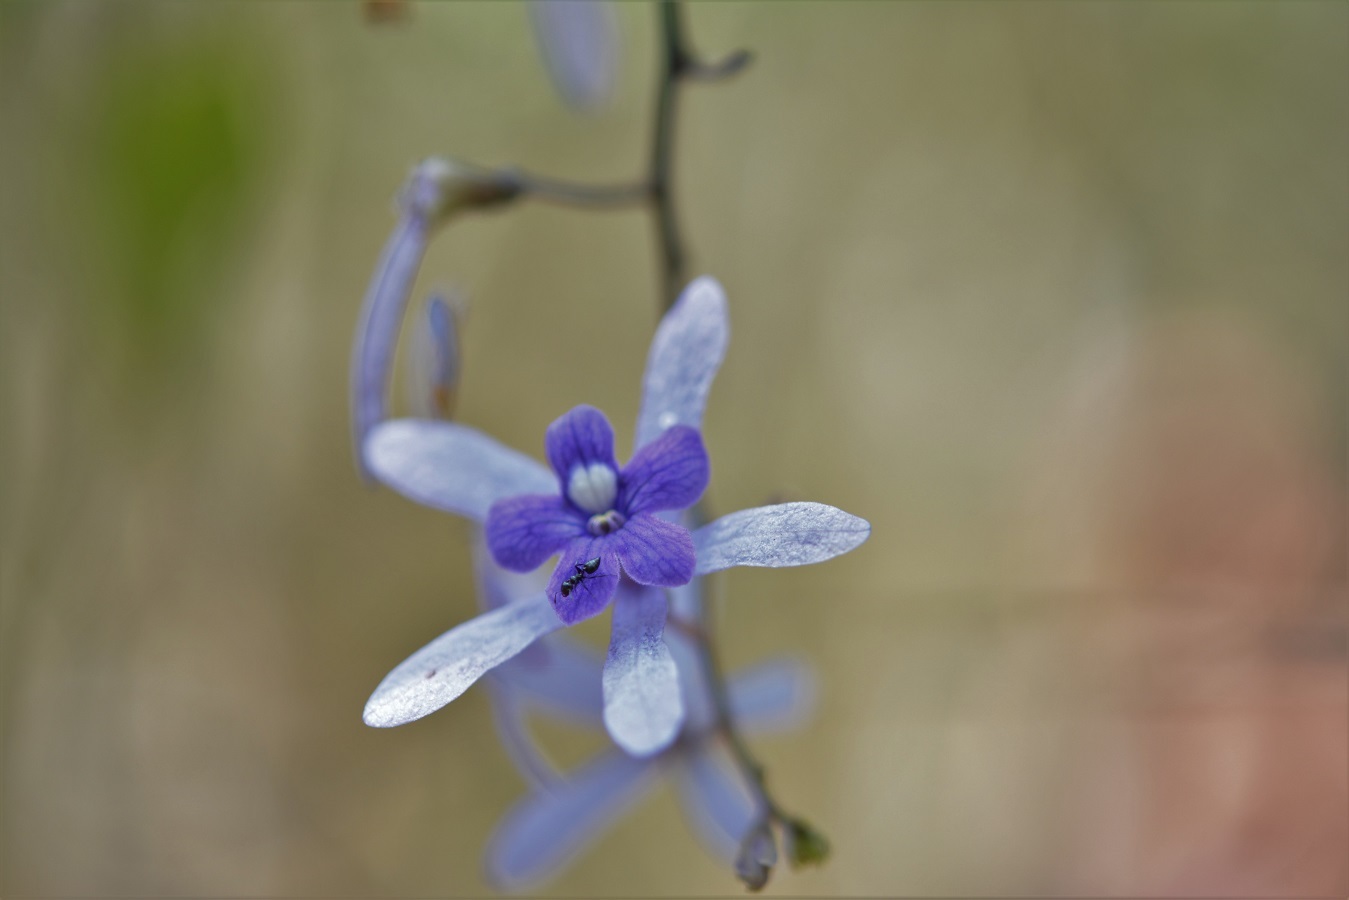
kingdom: Plantae
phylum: Tracheophyta
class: Magnoliopsida
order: Lamiales
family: Verbenaceae
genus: Petrea
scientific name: Petrea volubilis
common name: Queen's-wreath
